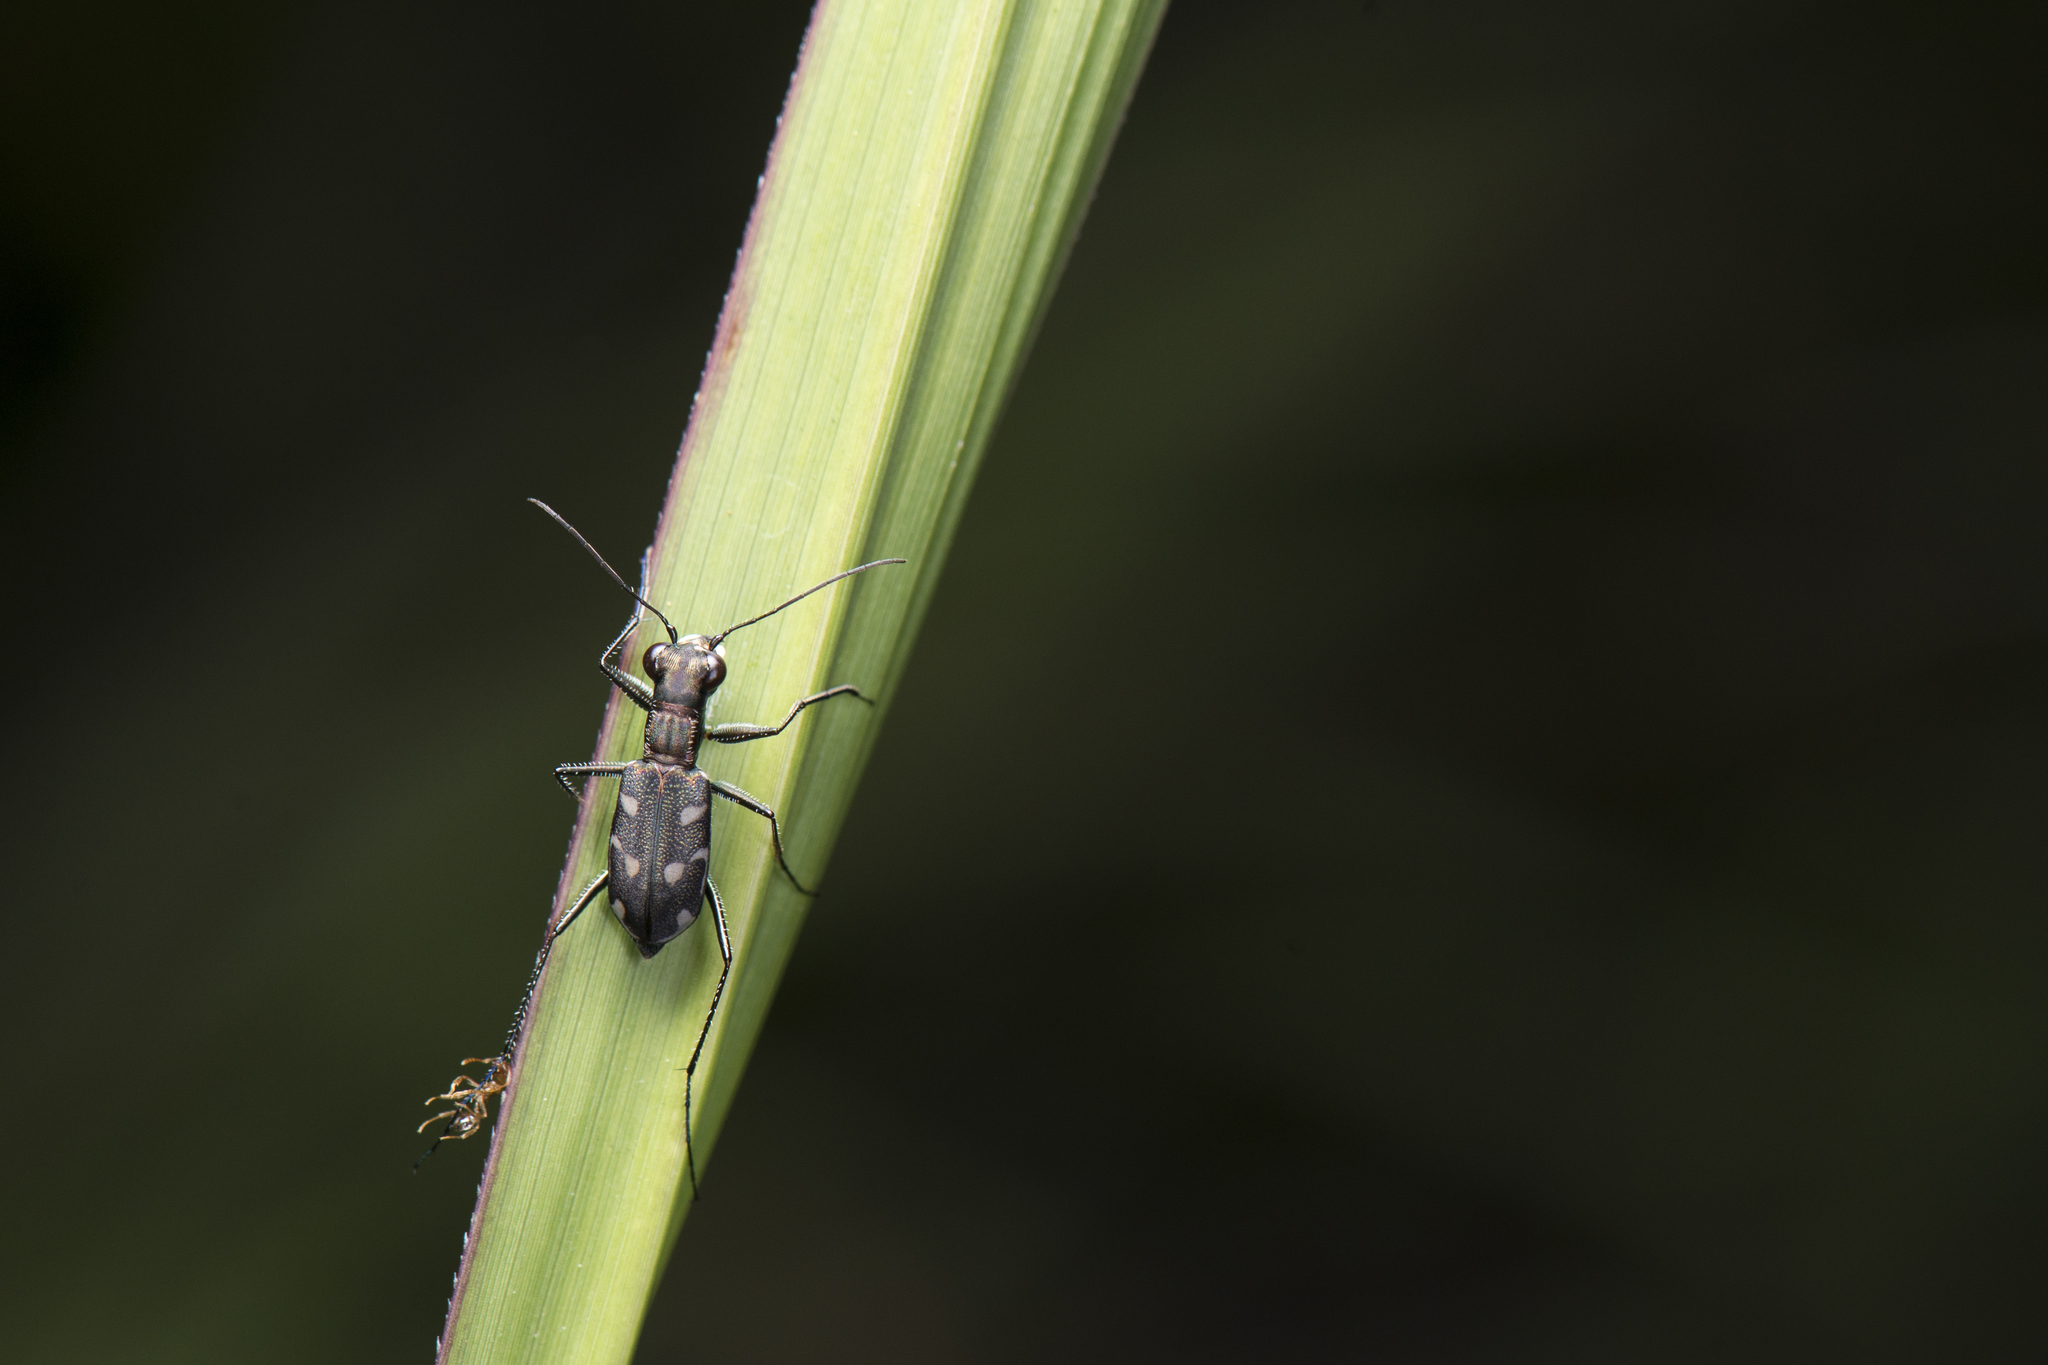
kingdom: Animalia
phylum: Arthropoda
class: Insecta
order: Coleoptera
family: Carabidae
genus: Cylindera
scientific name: Cylindera kaleea
